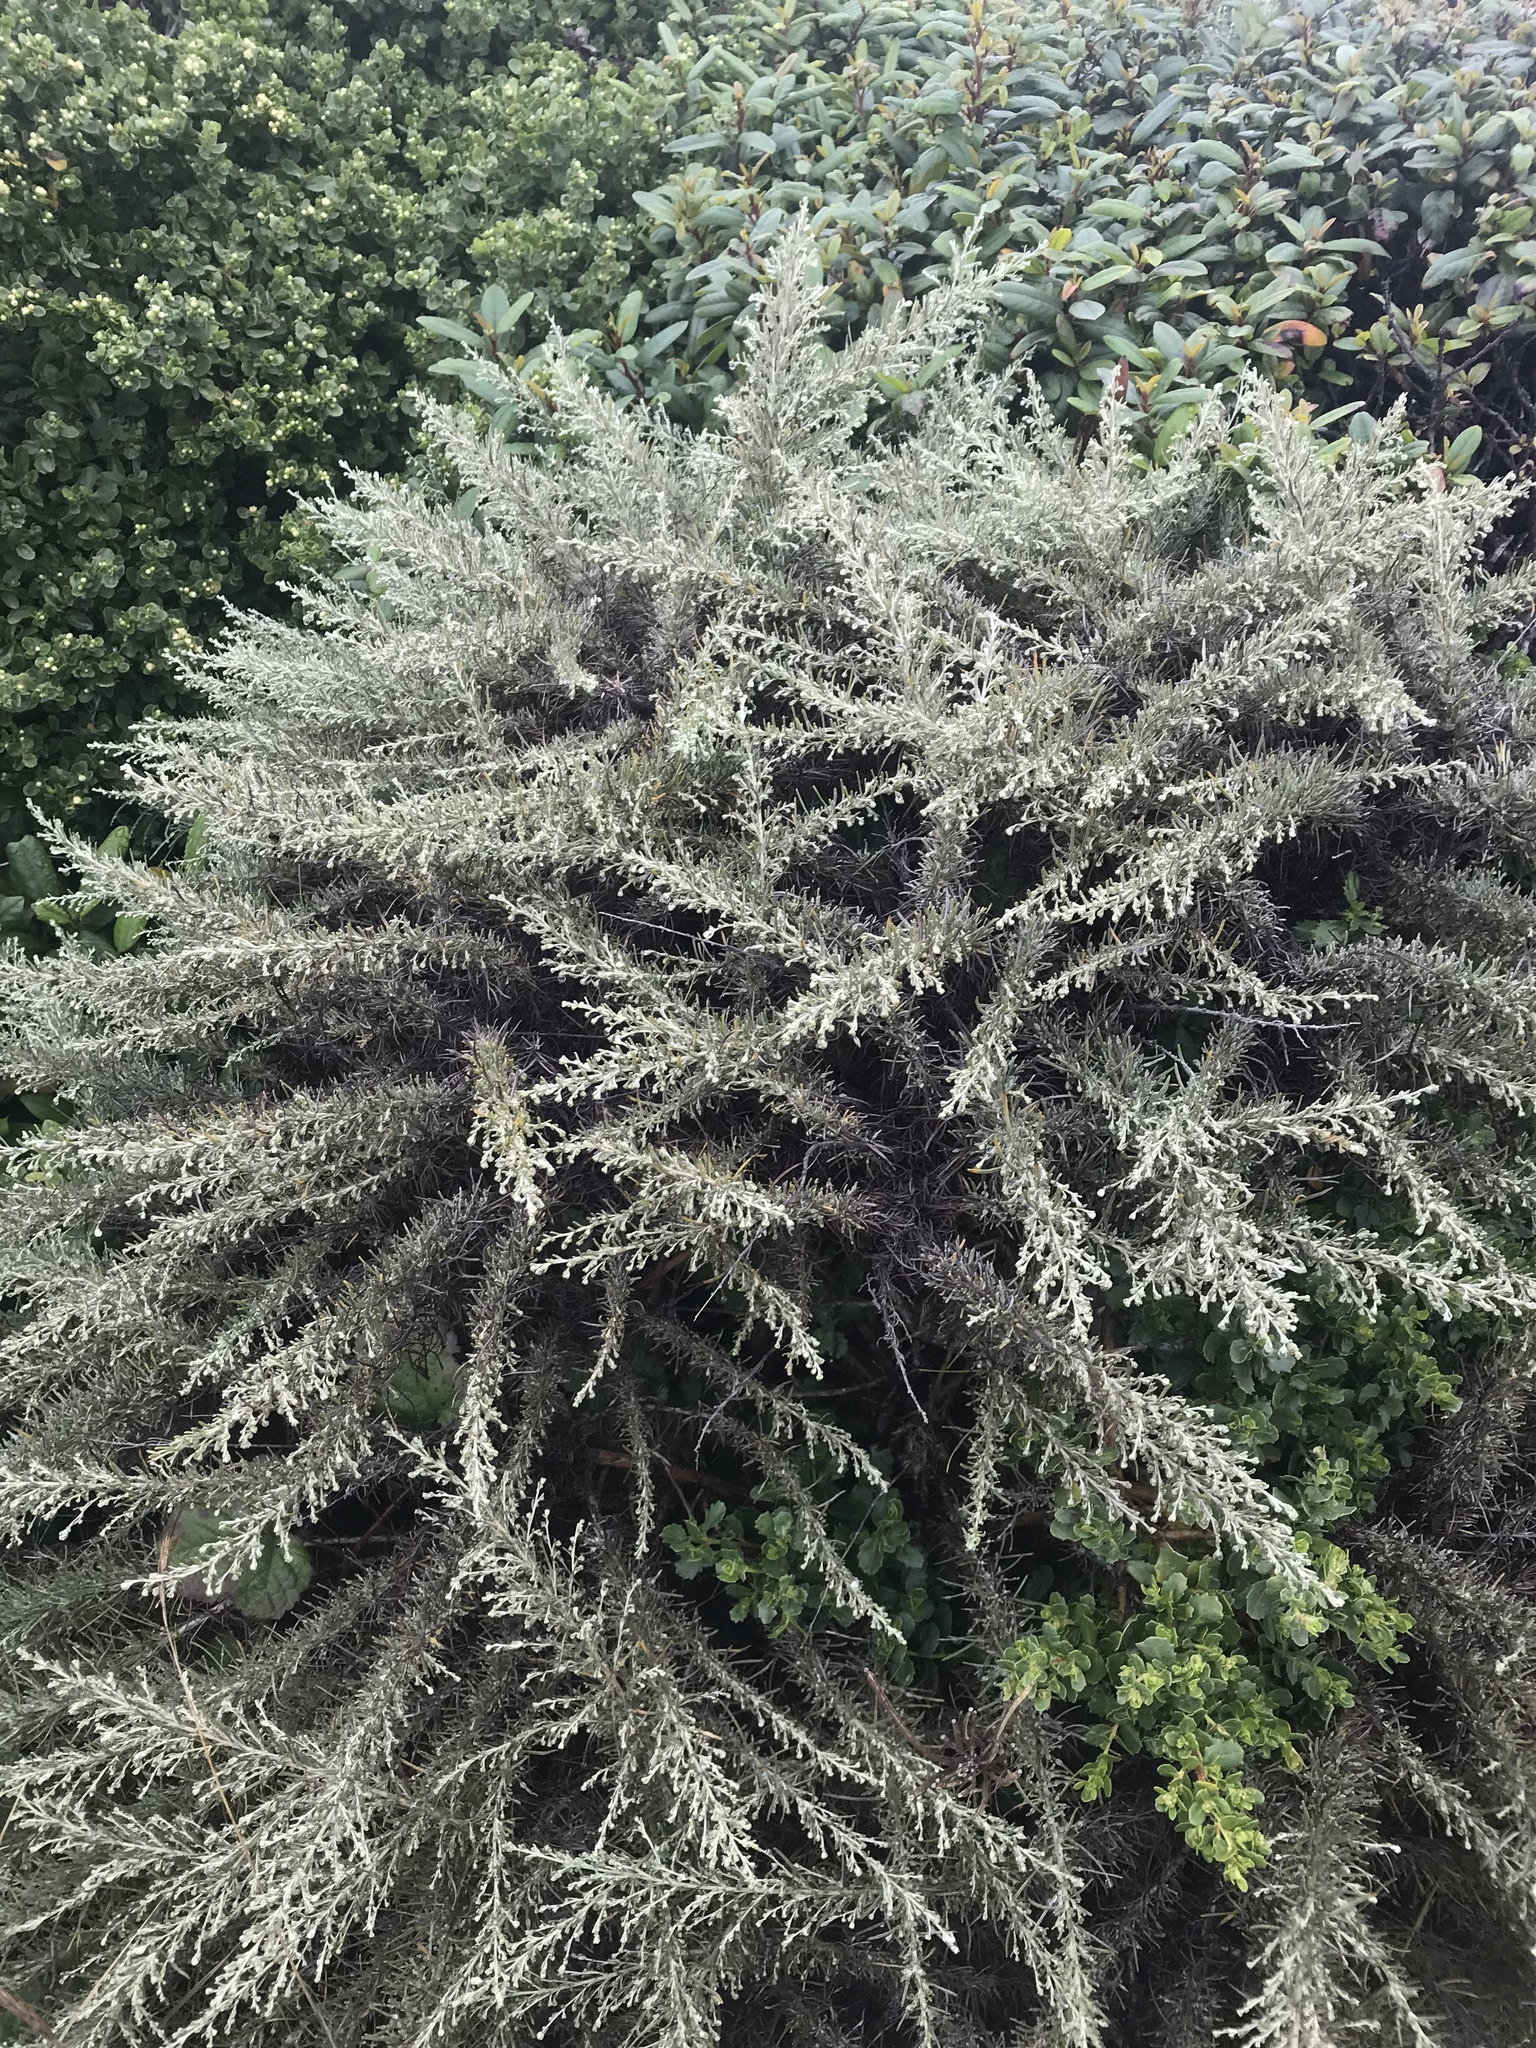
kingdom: Plantae
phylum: Tracheophyta
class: Magnoliopsida
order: Asterales
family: Asteraceae
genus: Artemisia
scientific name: Artemisia californica
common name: California sagebrush
